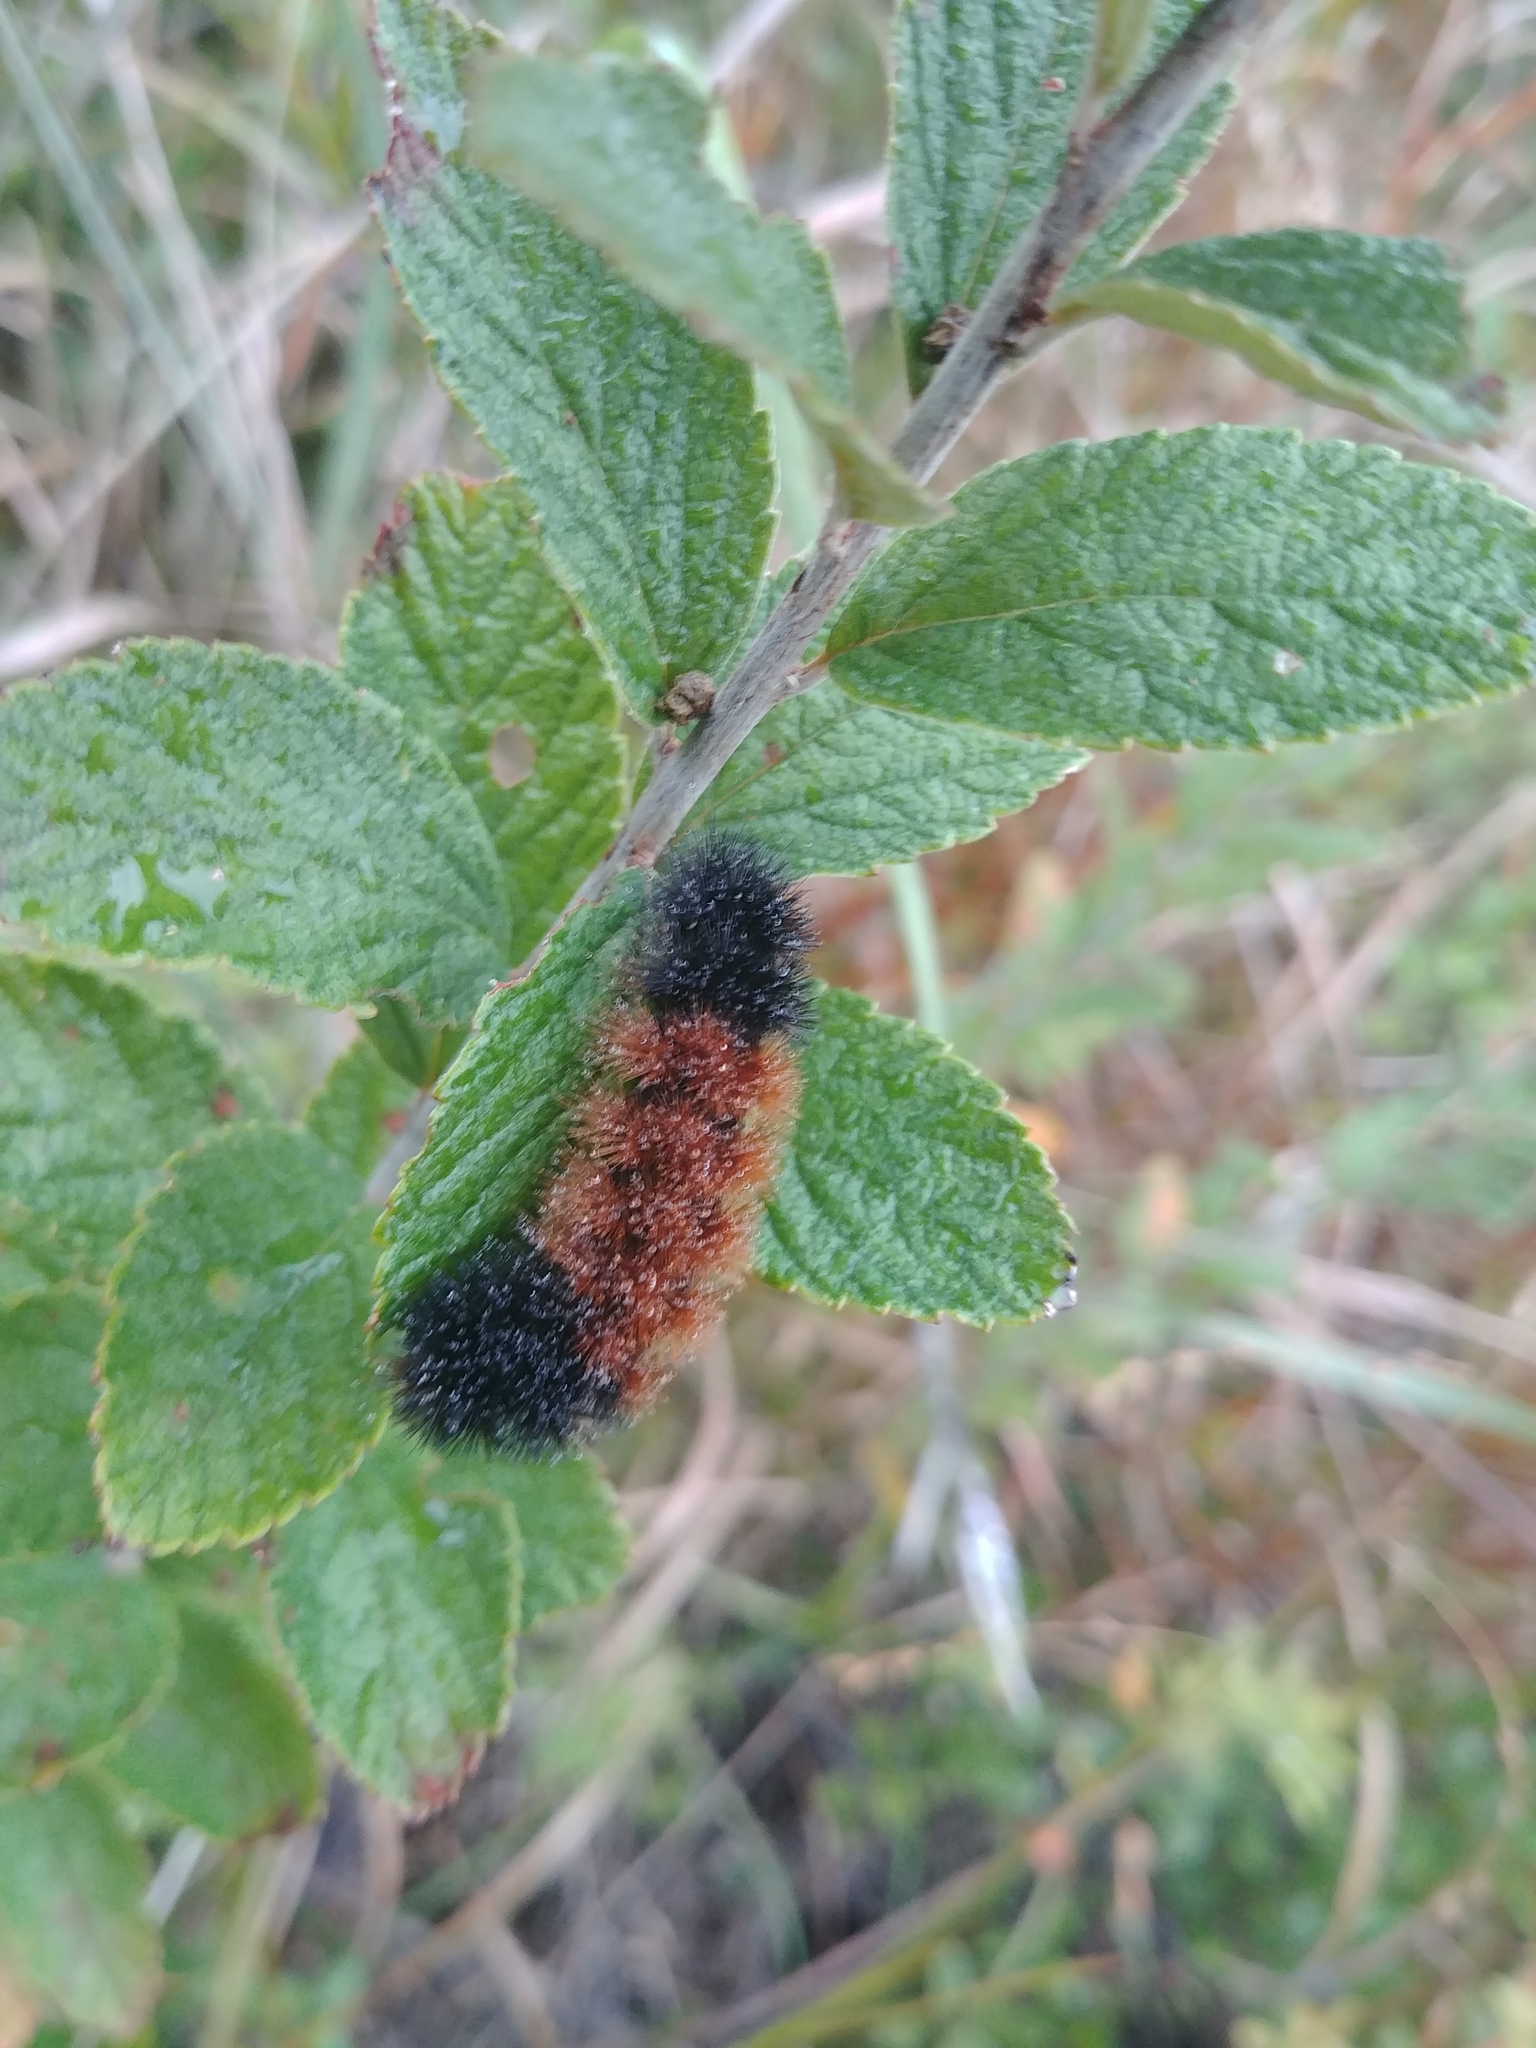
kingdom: Animalia
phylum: Arthropoda
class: Insecta
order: Lepidoptera
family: Erebidae
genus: Pyrrharctia
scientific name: Pyrrharctia isabella
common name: Isabella tiger moth
